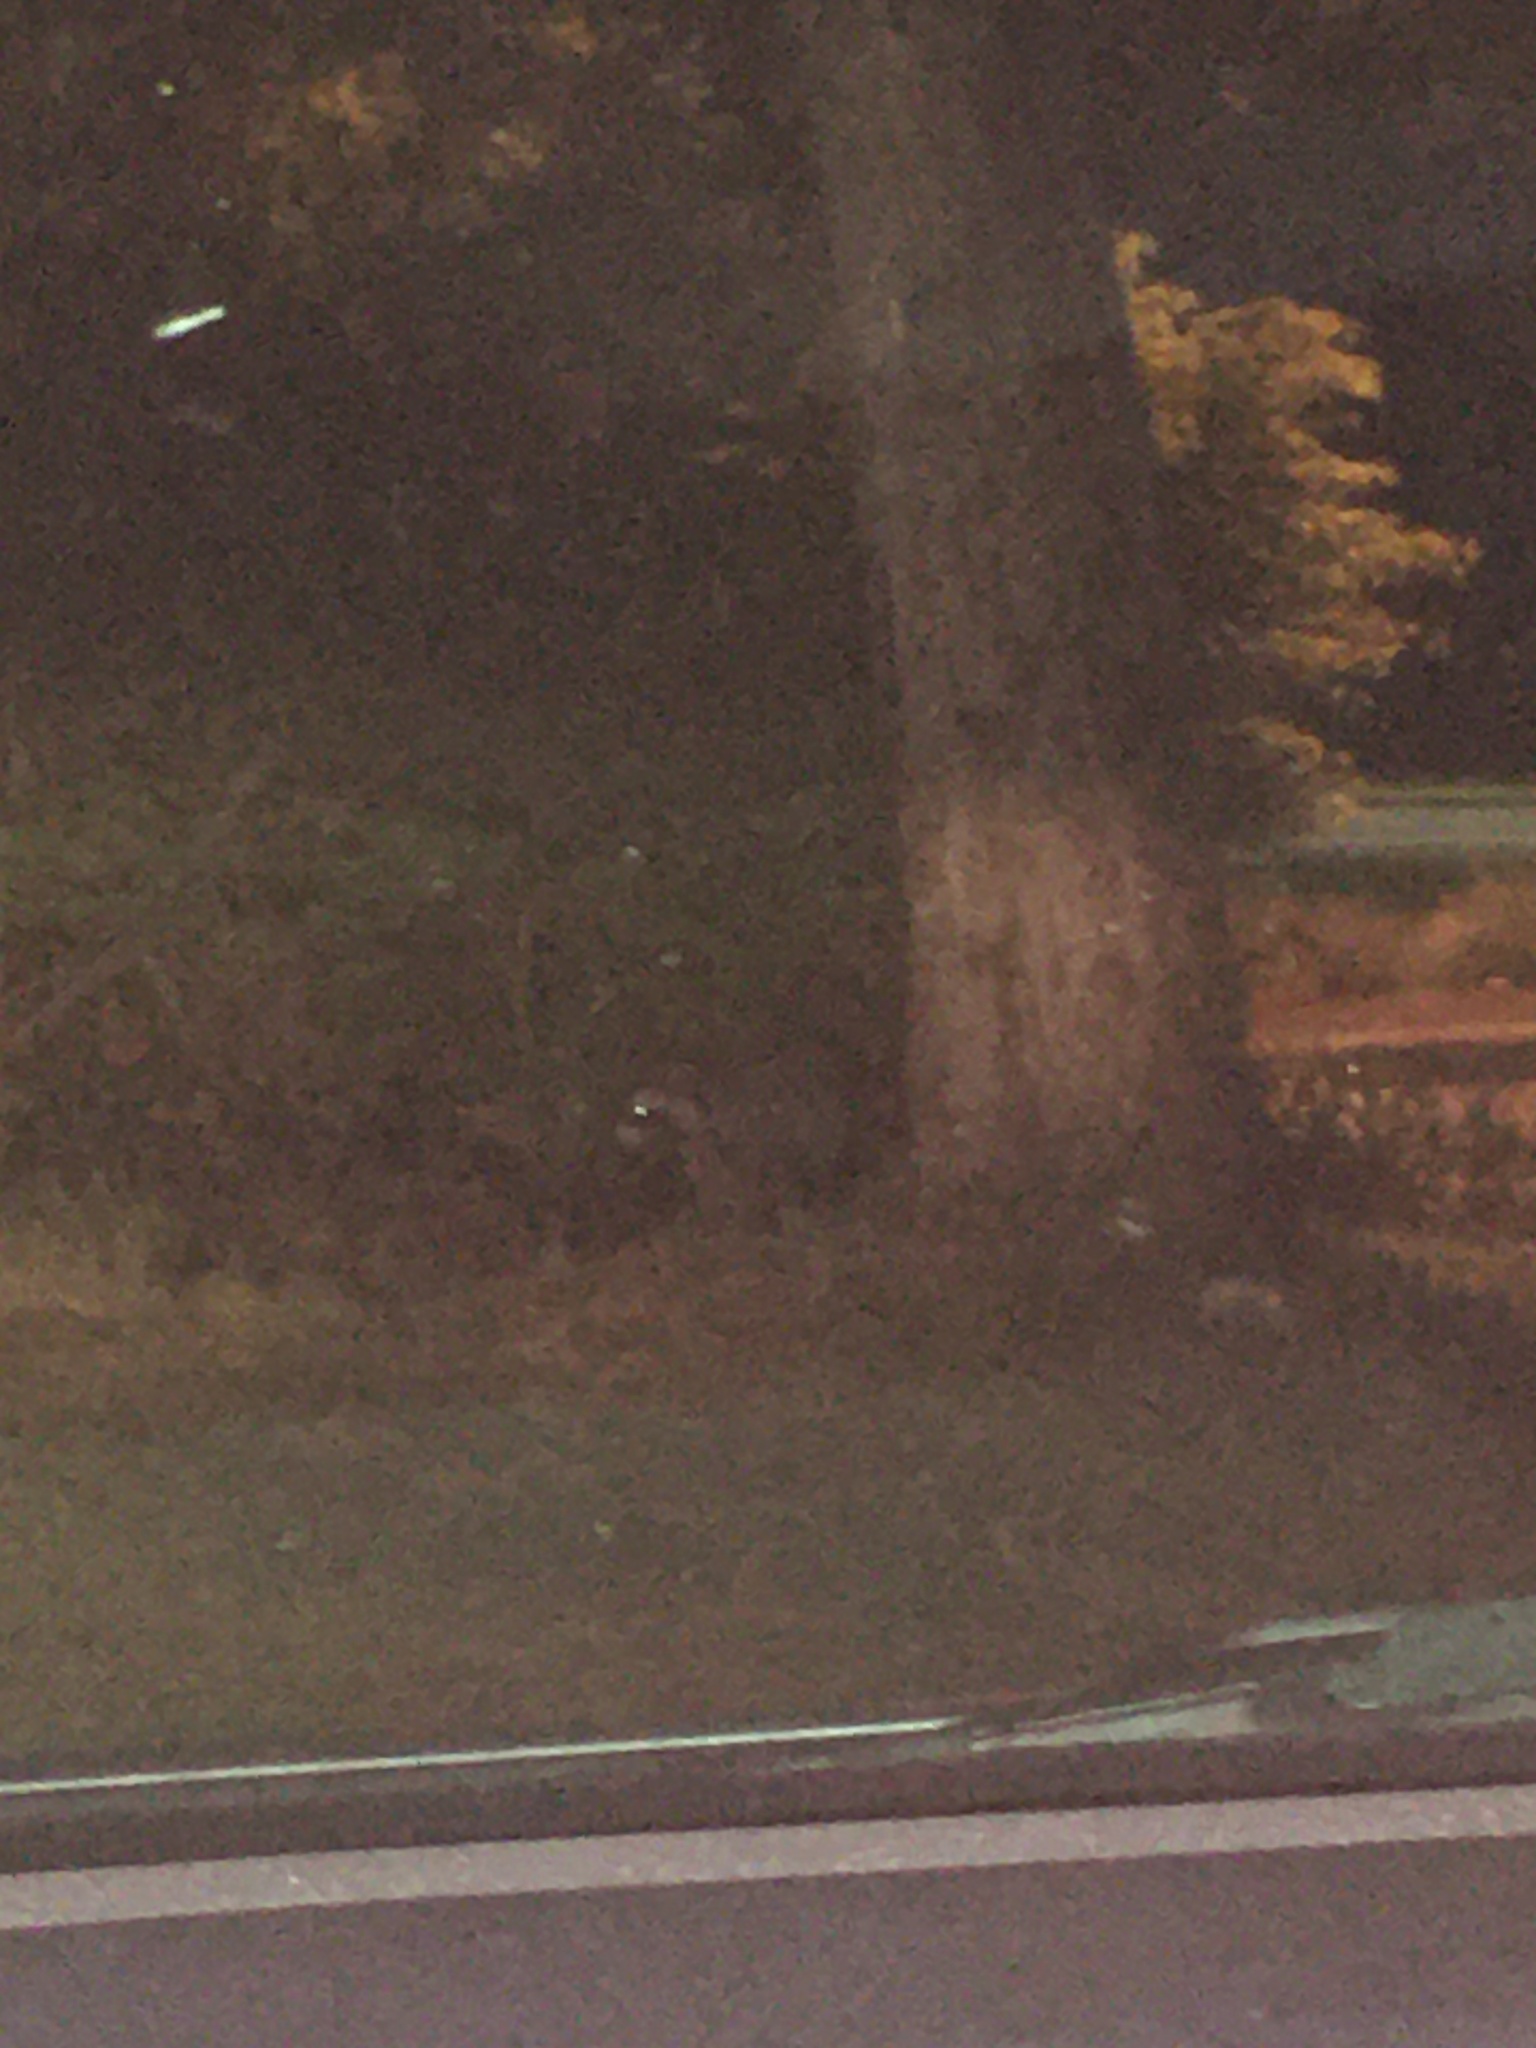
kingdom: Animalia
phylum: Chordata
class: Mammalia
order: Carnivora
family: Procyonidae
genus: Procyon
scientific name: Procyon lotor
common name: Raccoon
